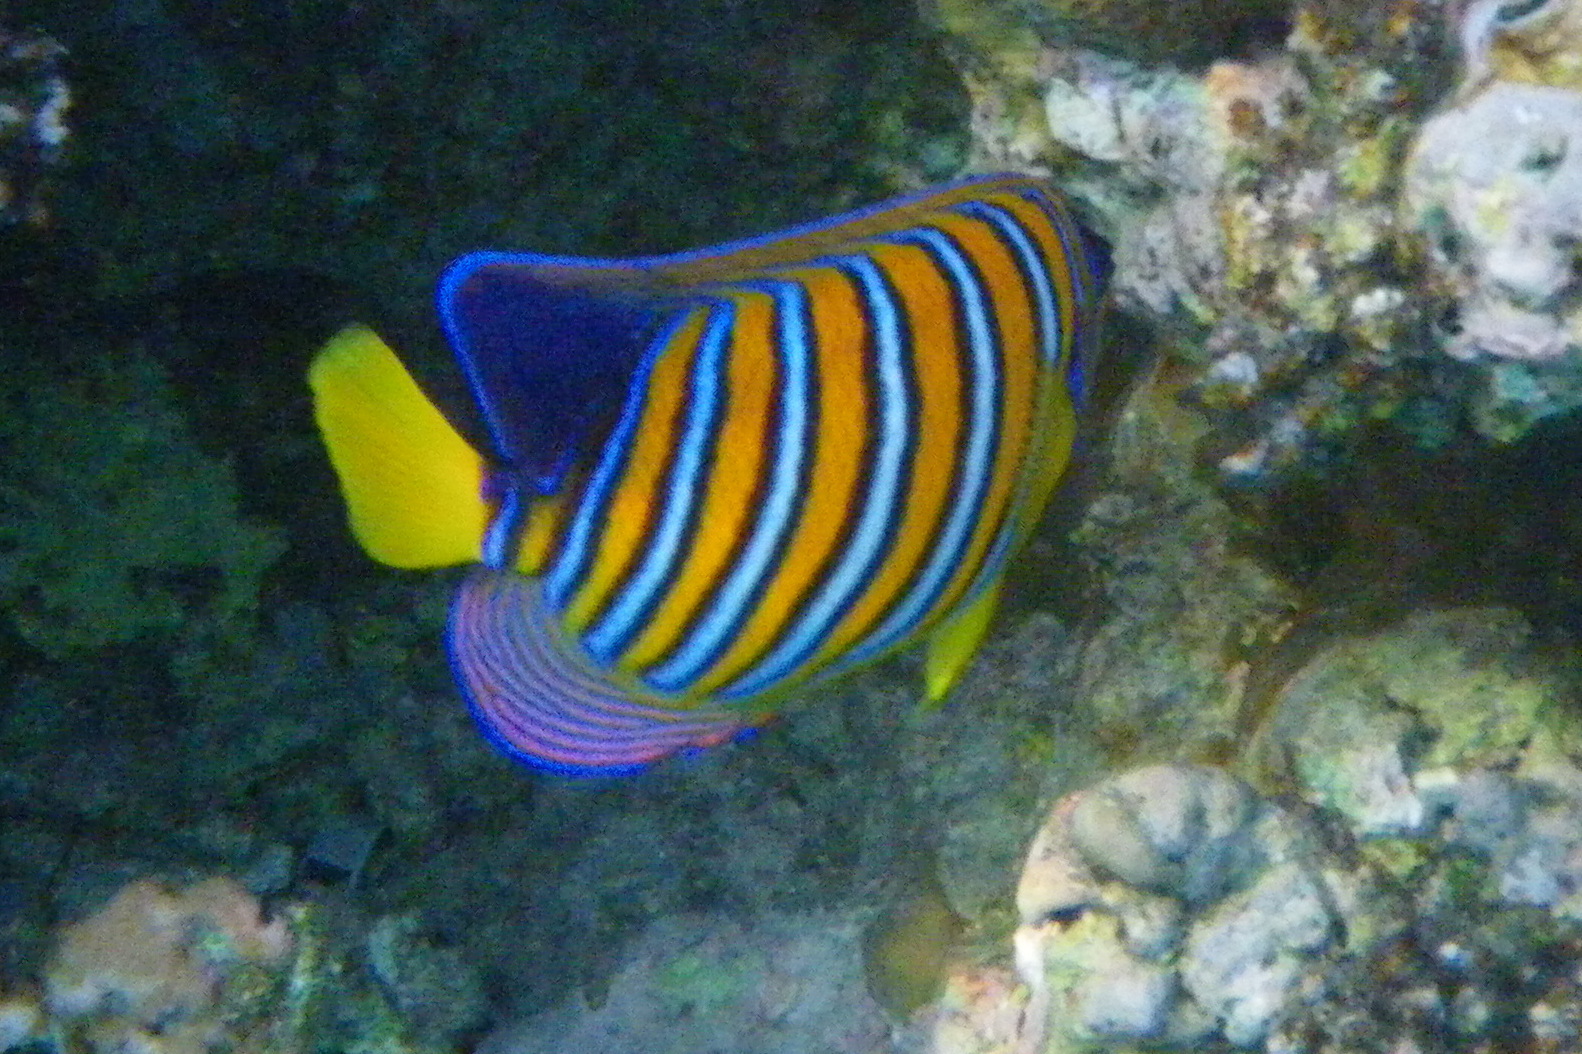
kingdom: Animalia
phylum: Chordata
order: Perciformes
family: Pomacanthidae
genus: Pygoplites
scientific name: Pygoplites diacanthus
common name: Regal angelfish
